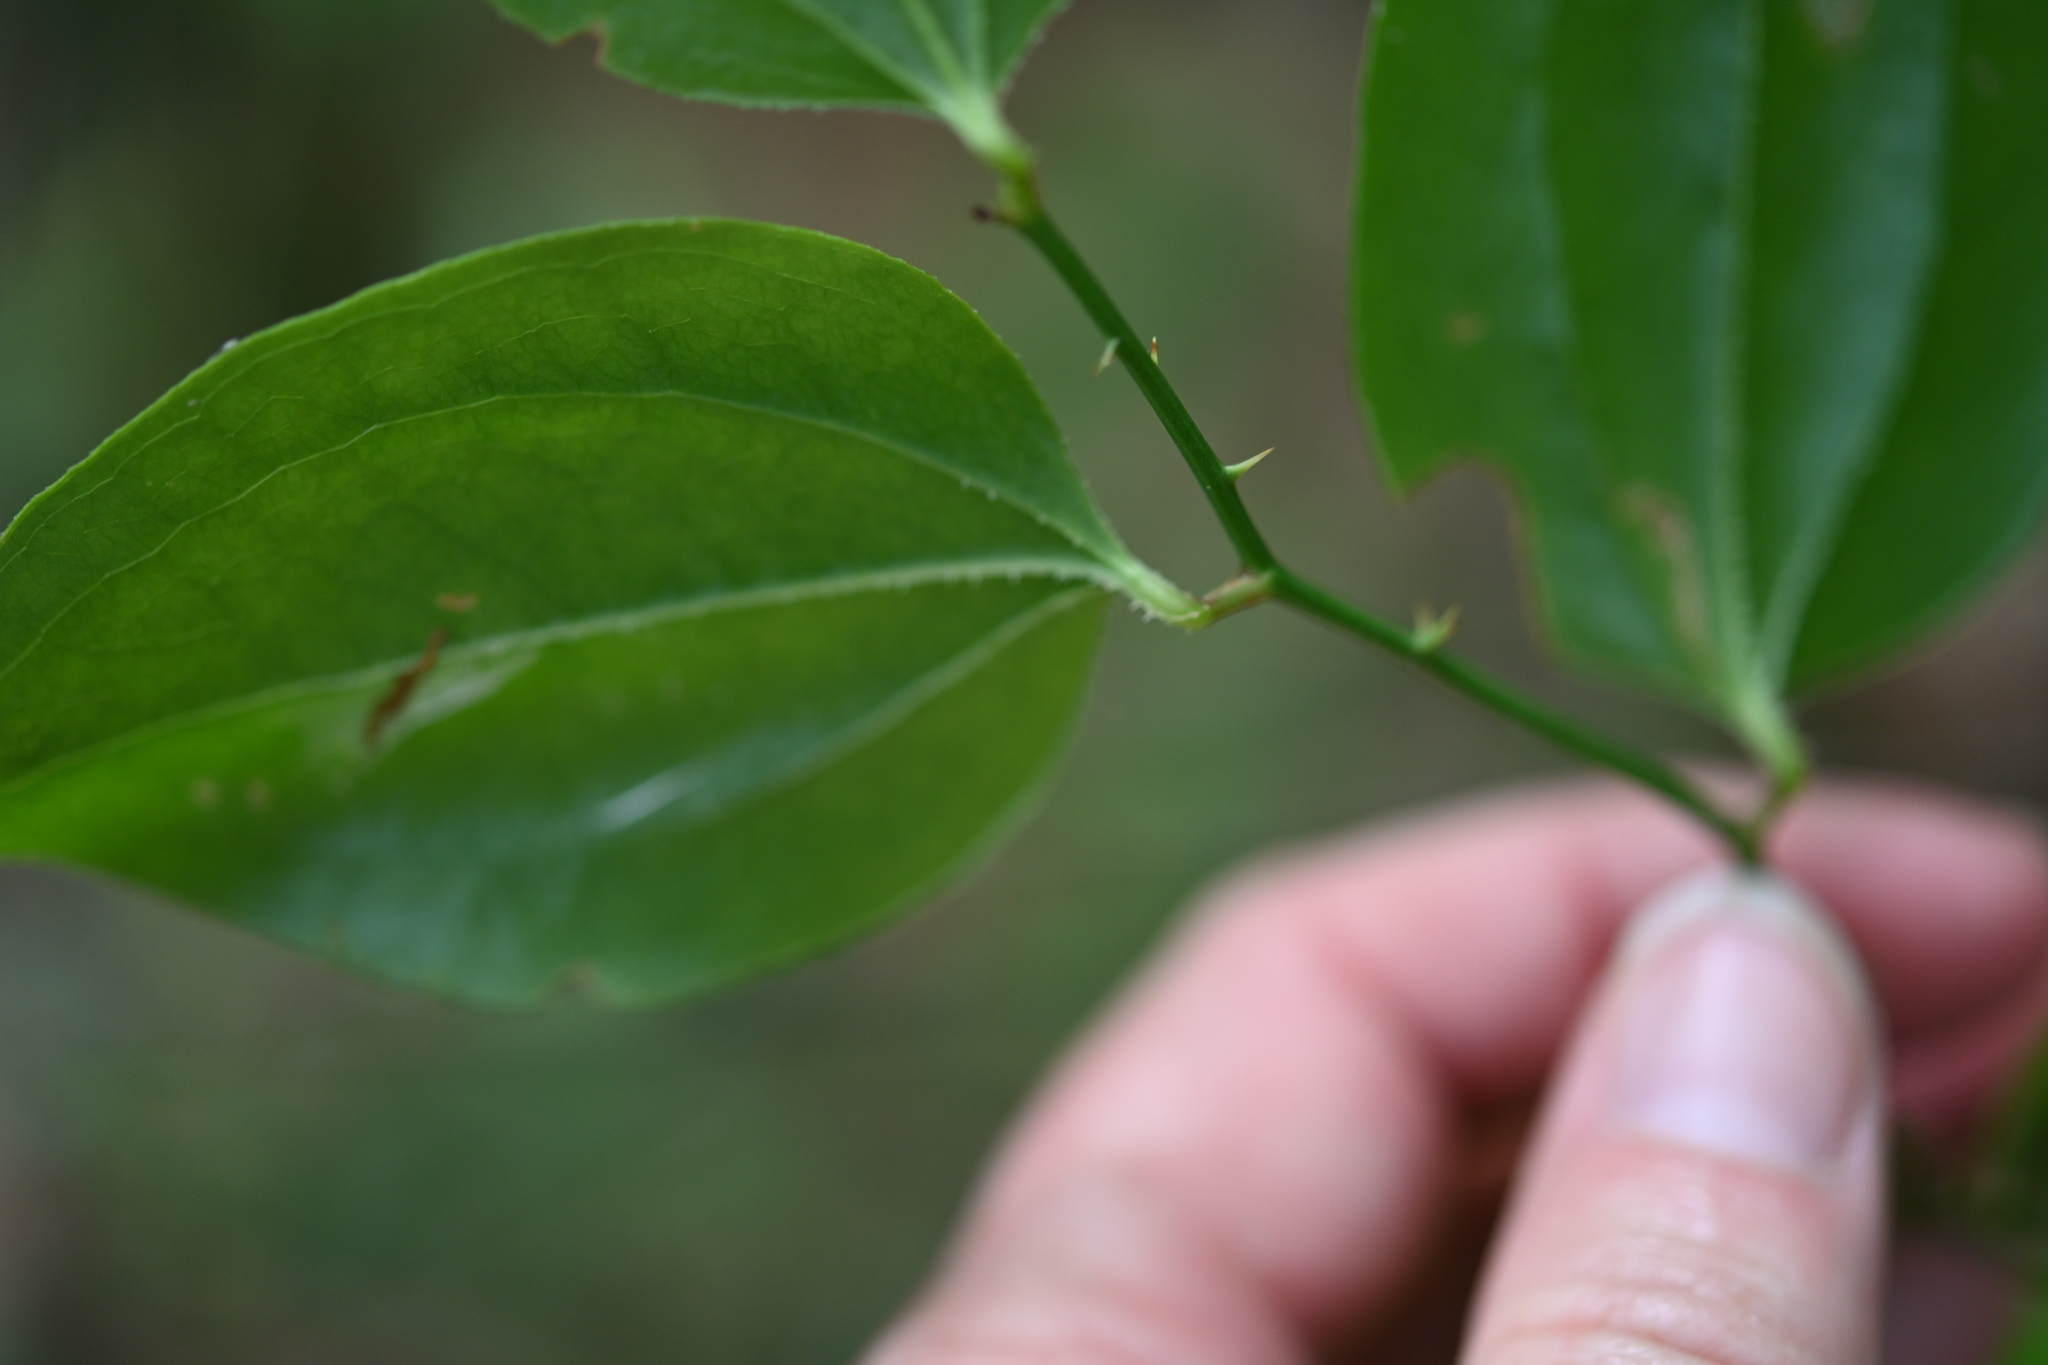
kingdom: Plantae
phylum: Tracheophyta
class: Liliopsida
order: Liliales
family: Smilacaceae
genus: Smilax
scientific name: Smilax rotundifolia
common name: Bullbriar
